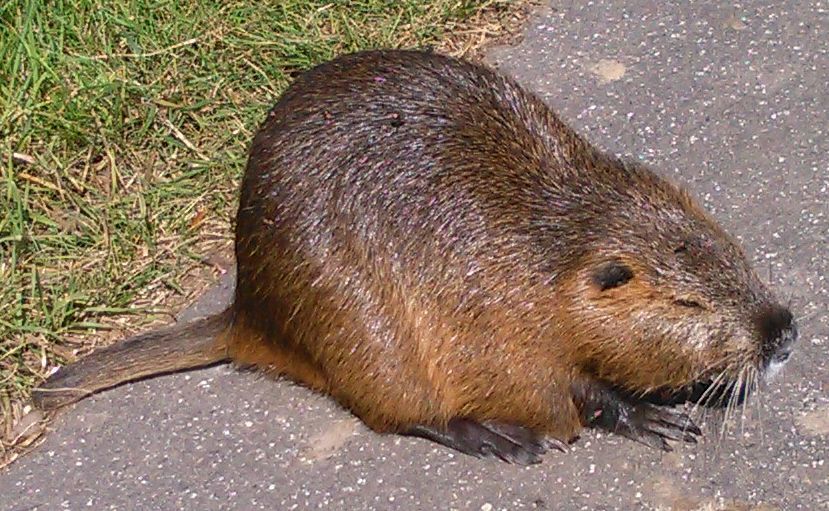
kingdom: Animalia
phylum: Chordata
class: Mammalia
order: Rodentia
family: Myocastoridae
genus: Myocastor
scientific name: Myocastor coypus
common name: Coypu
